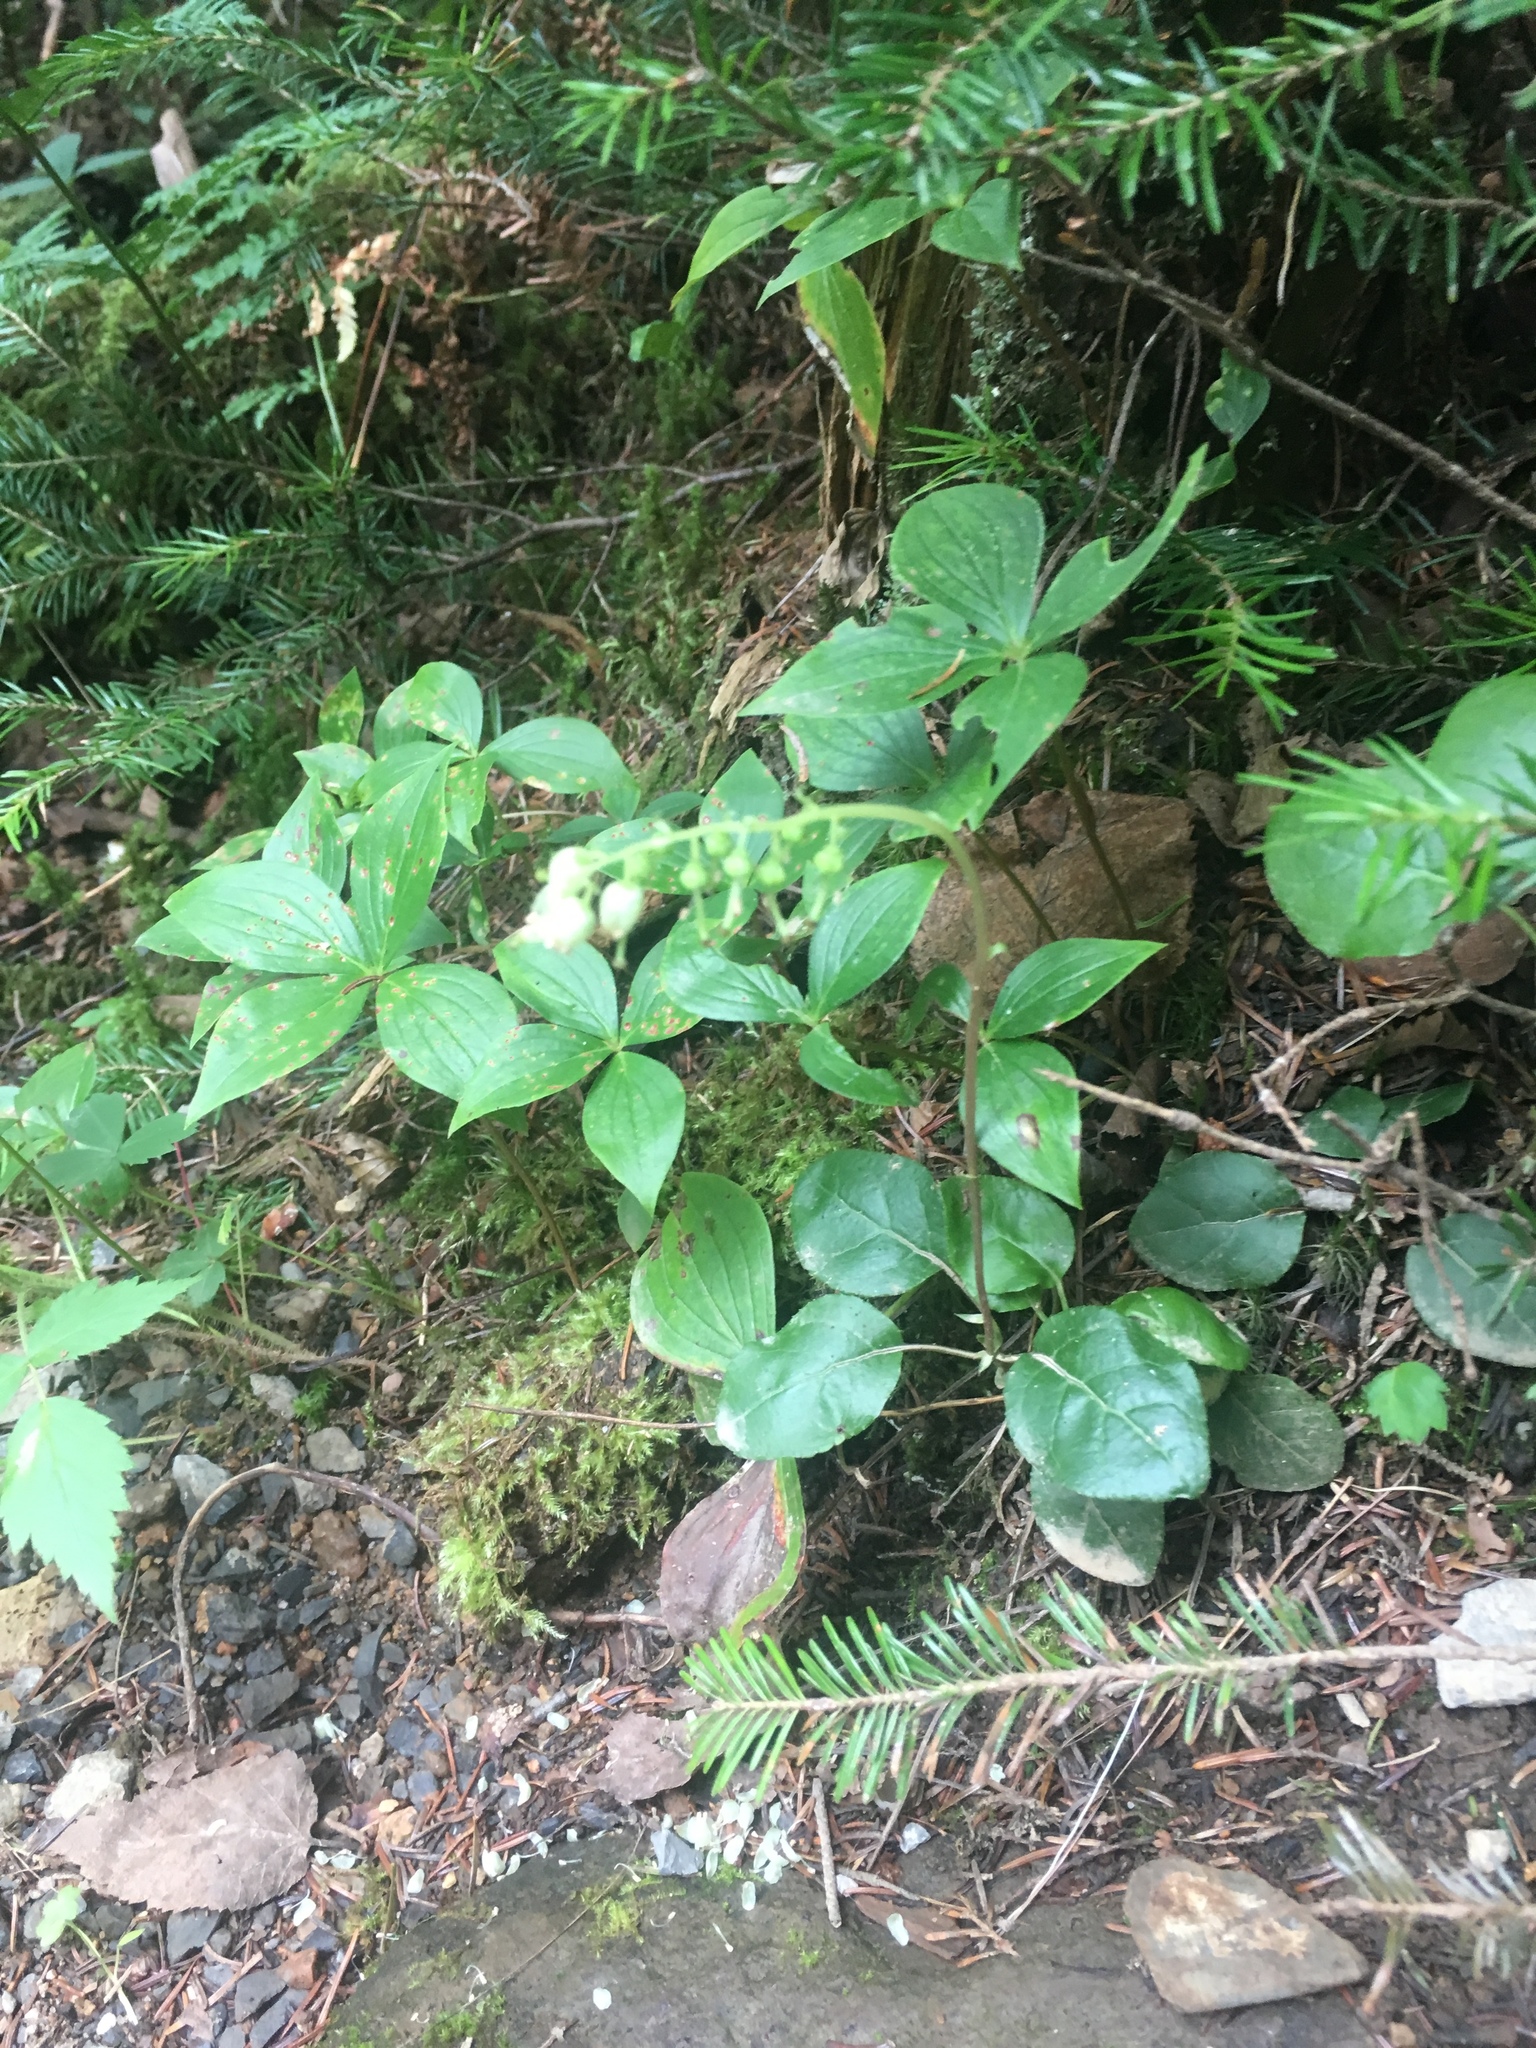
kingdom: Plantae
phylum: Tracheophyta
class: Magnoliopsida
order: Ericales
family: Ericaceae
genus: Orthilia
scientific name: Orthilia secunda
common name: One-sided orthilia
